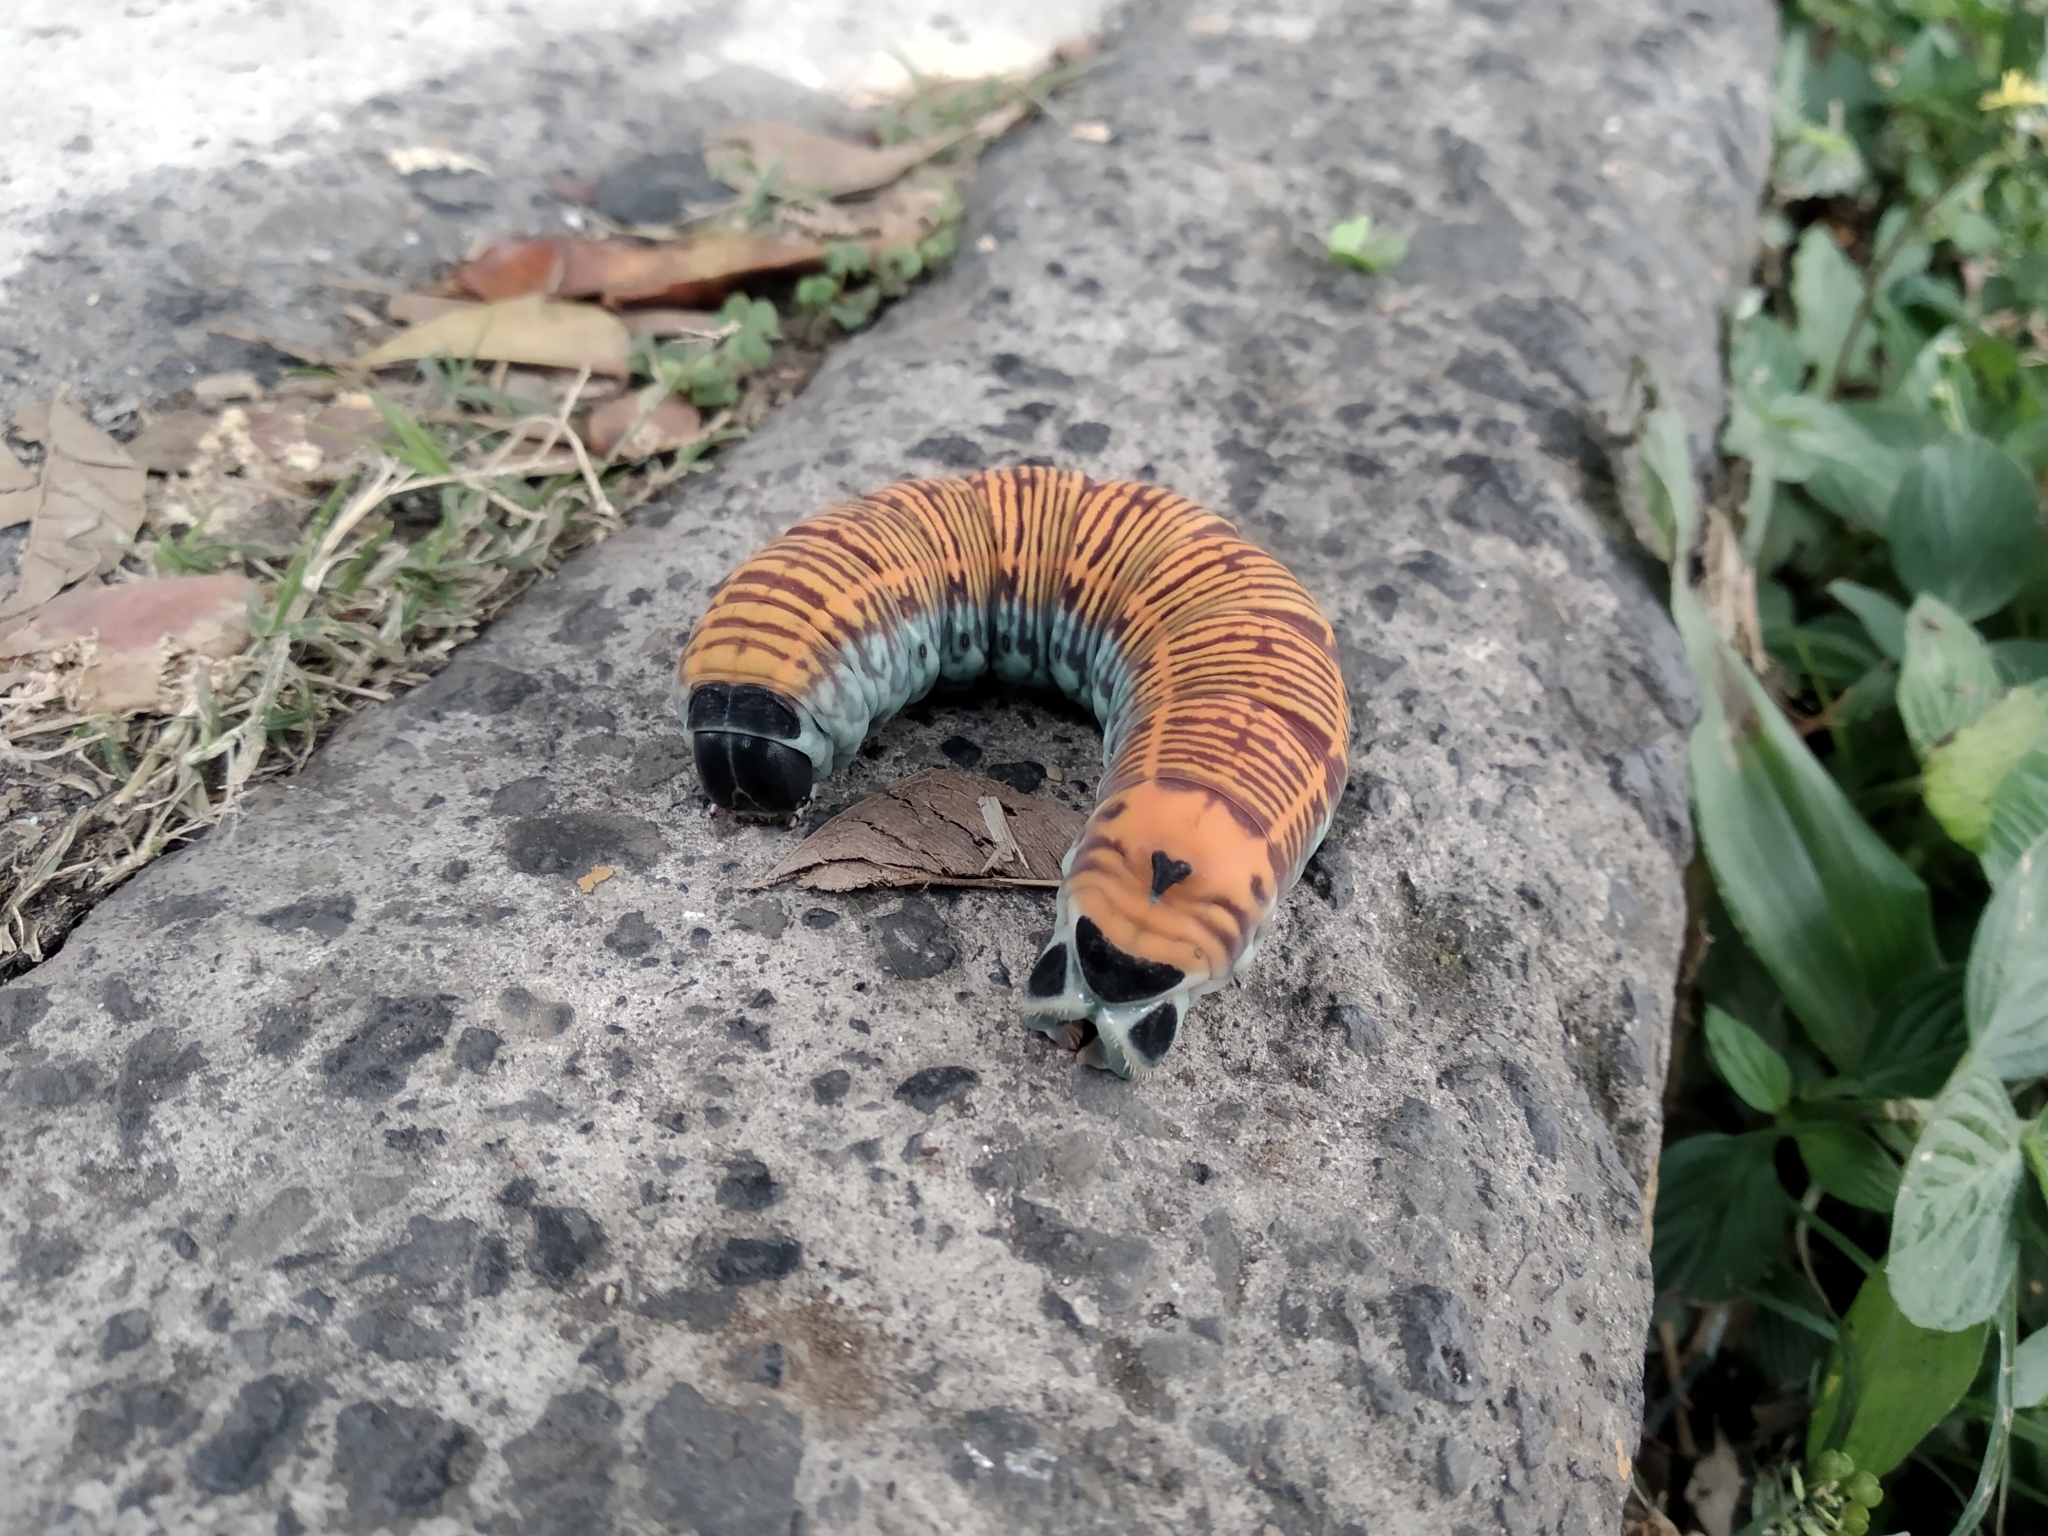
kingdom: Animalia
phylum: Arthropoda
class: Insecta
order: Lepidoptera
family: Sphingidae
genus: Pachylia
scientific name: Pachylia ficus
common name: Fig sphinx
